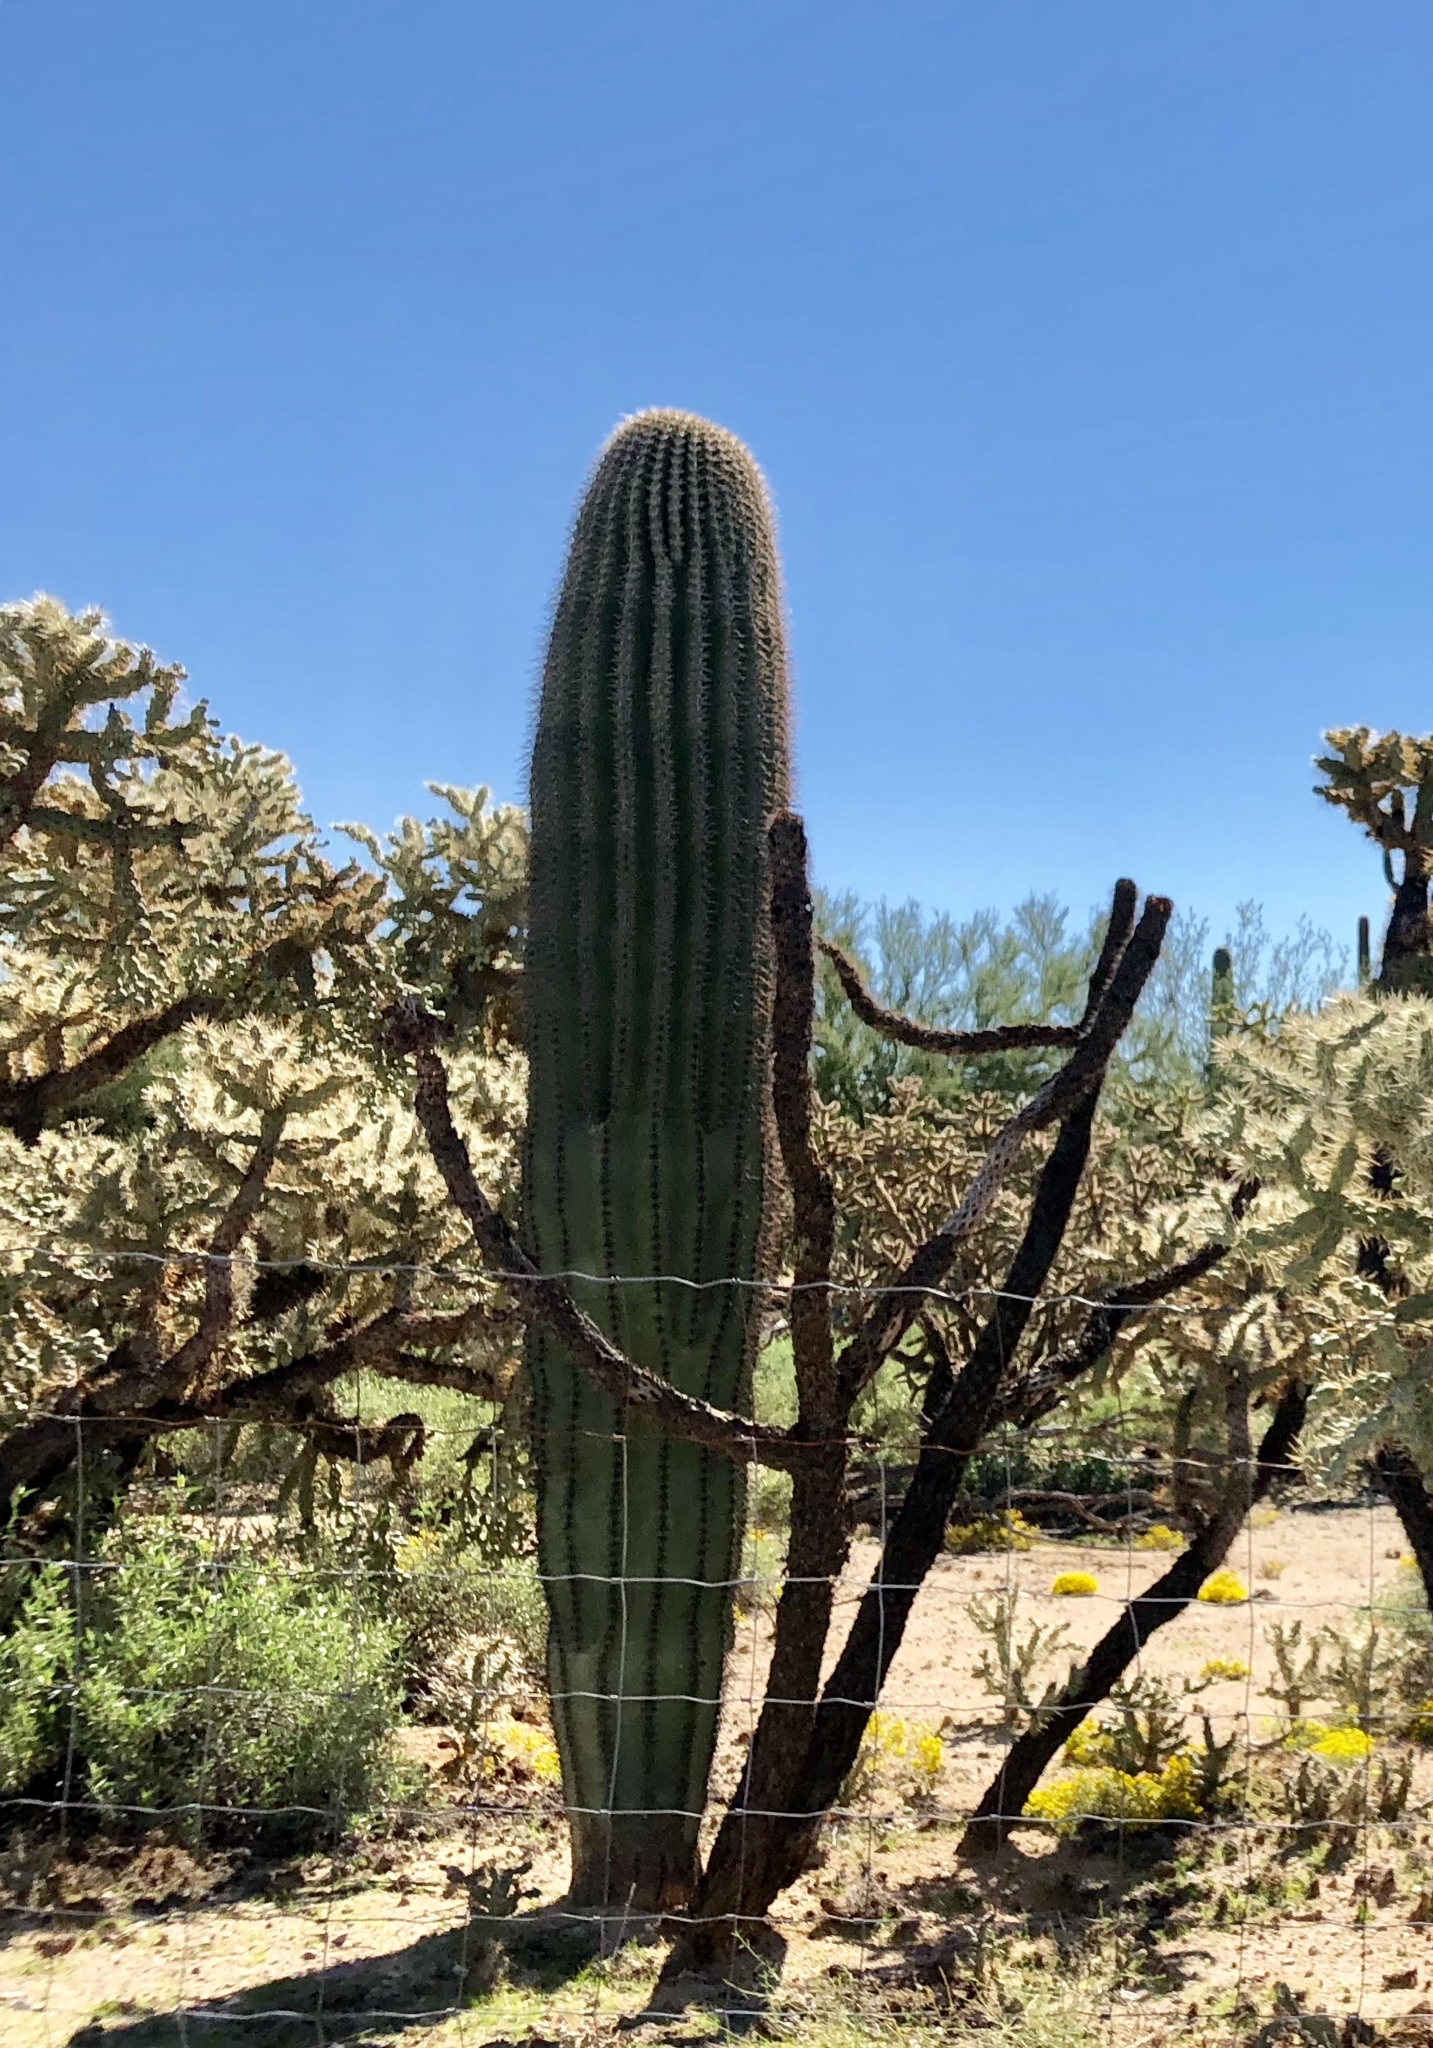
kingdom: Plantae
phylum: Tracheophyta
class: Magnoliopsida
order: Caryophyllales
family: Cactaceae
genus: Carnegiea
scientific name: Carnegiea gigantea
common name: Saguaro
